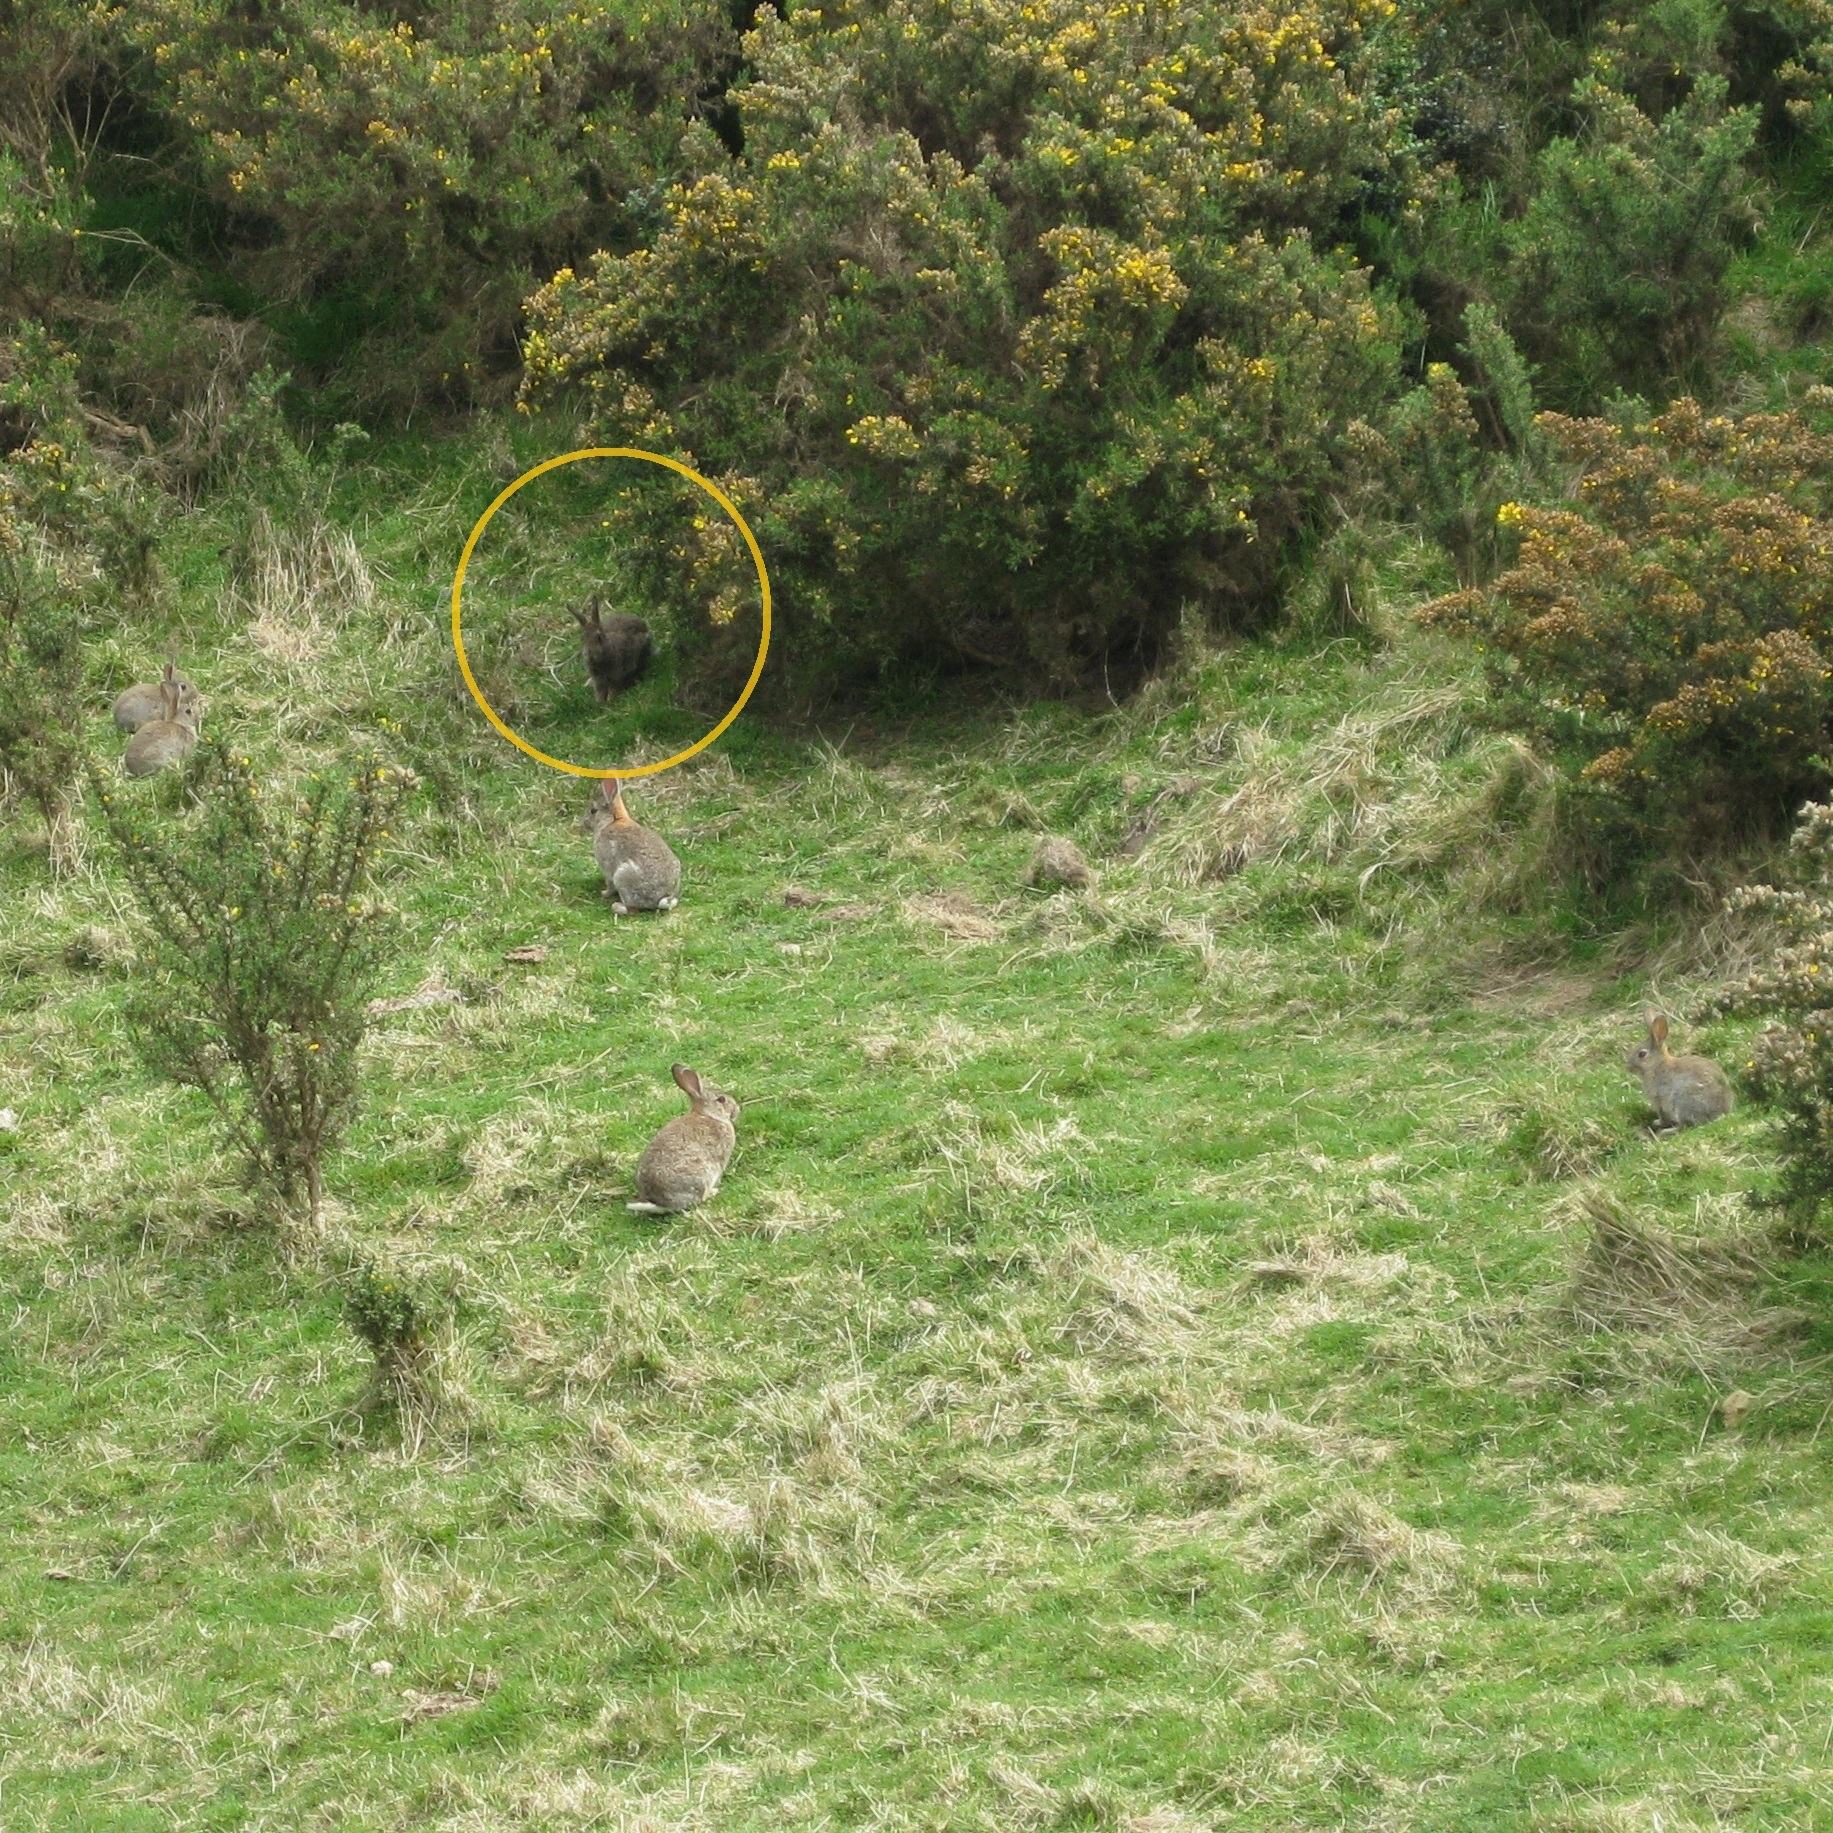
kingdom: Animalia
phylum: Chordata
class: Mammalia
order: Lagomorpha
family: Leporidae
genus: Oryctolagus
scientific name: Oryctolagus cuniculus
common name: European rabbit
